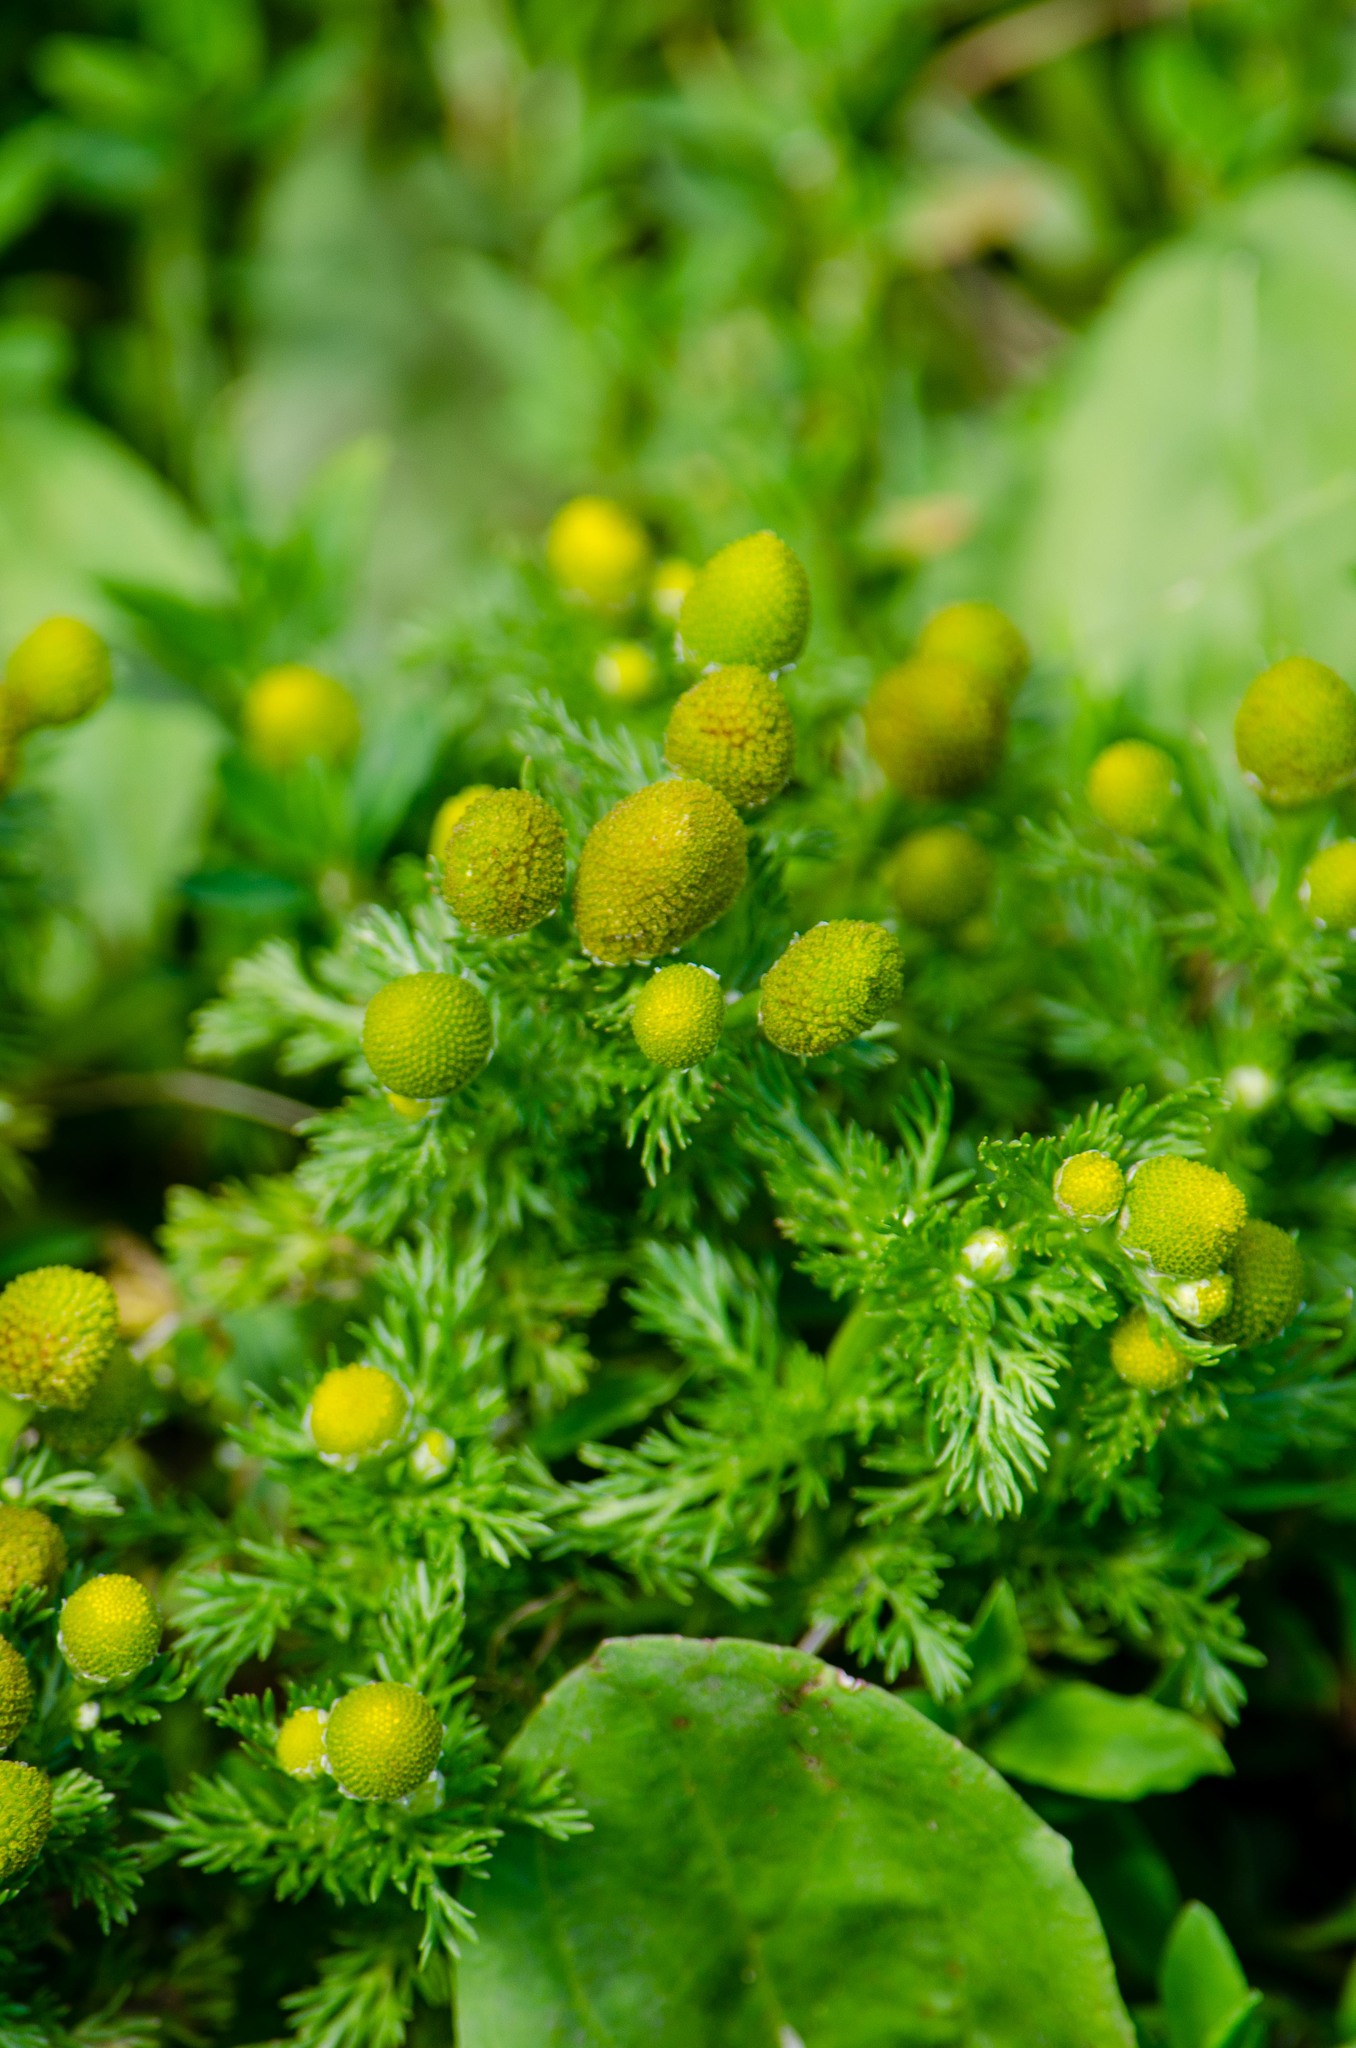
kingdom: Plantae
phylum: Tracheophyta
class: Magnoliopsida
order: Asterales
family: Asteraceae
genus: Matricaria
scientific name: Matricaria discoidea
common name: Disc mayweed
